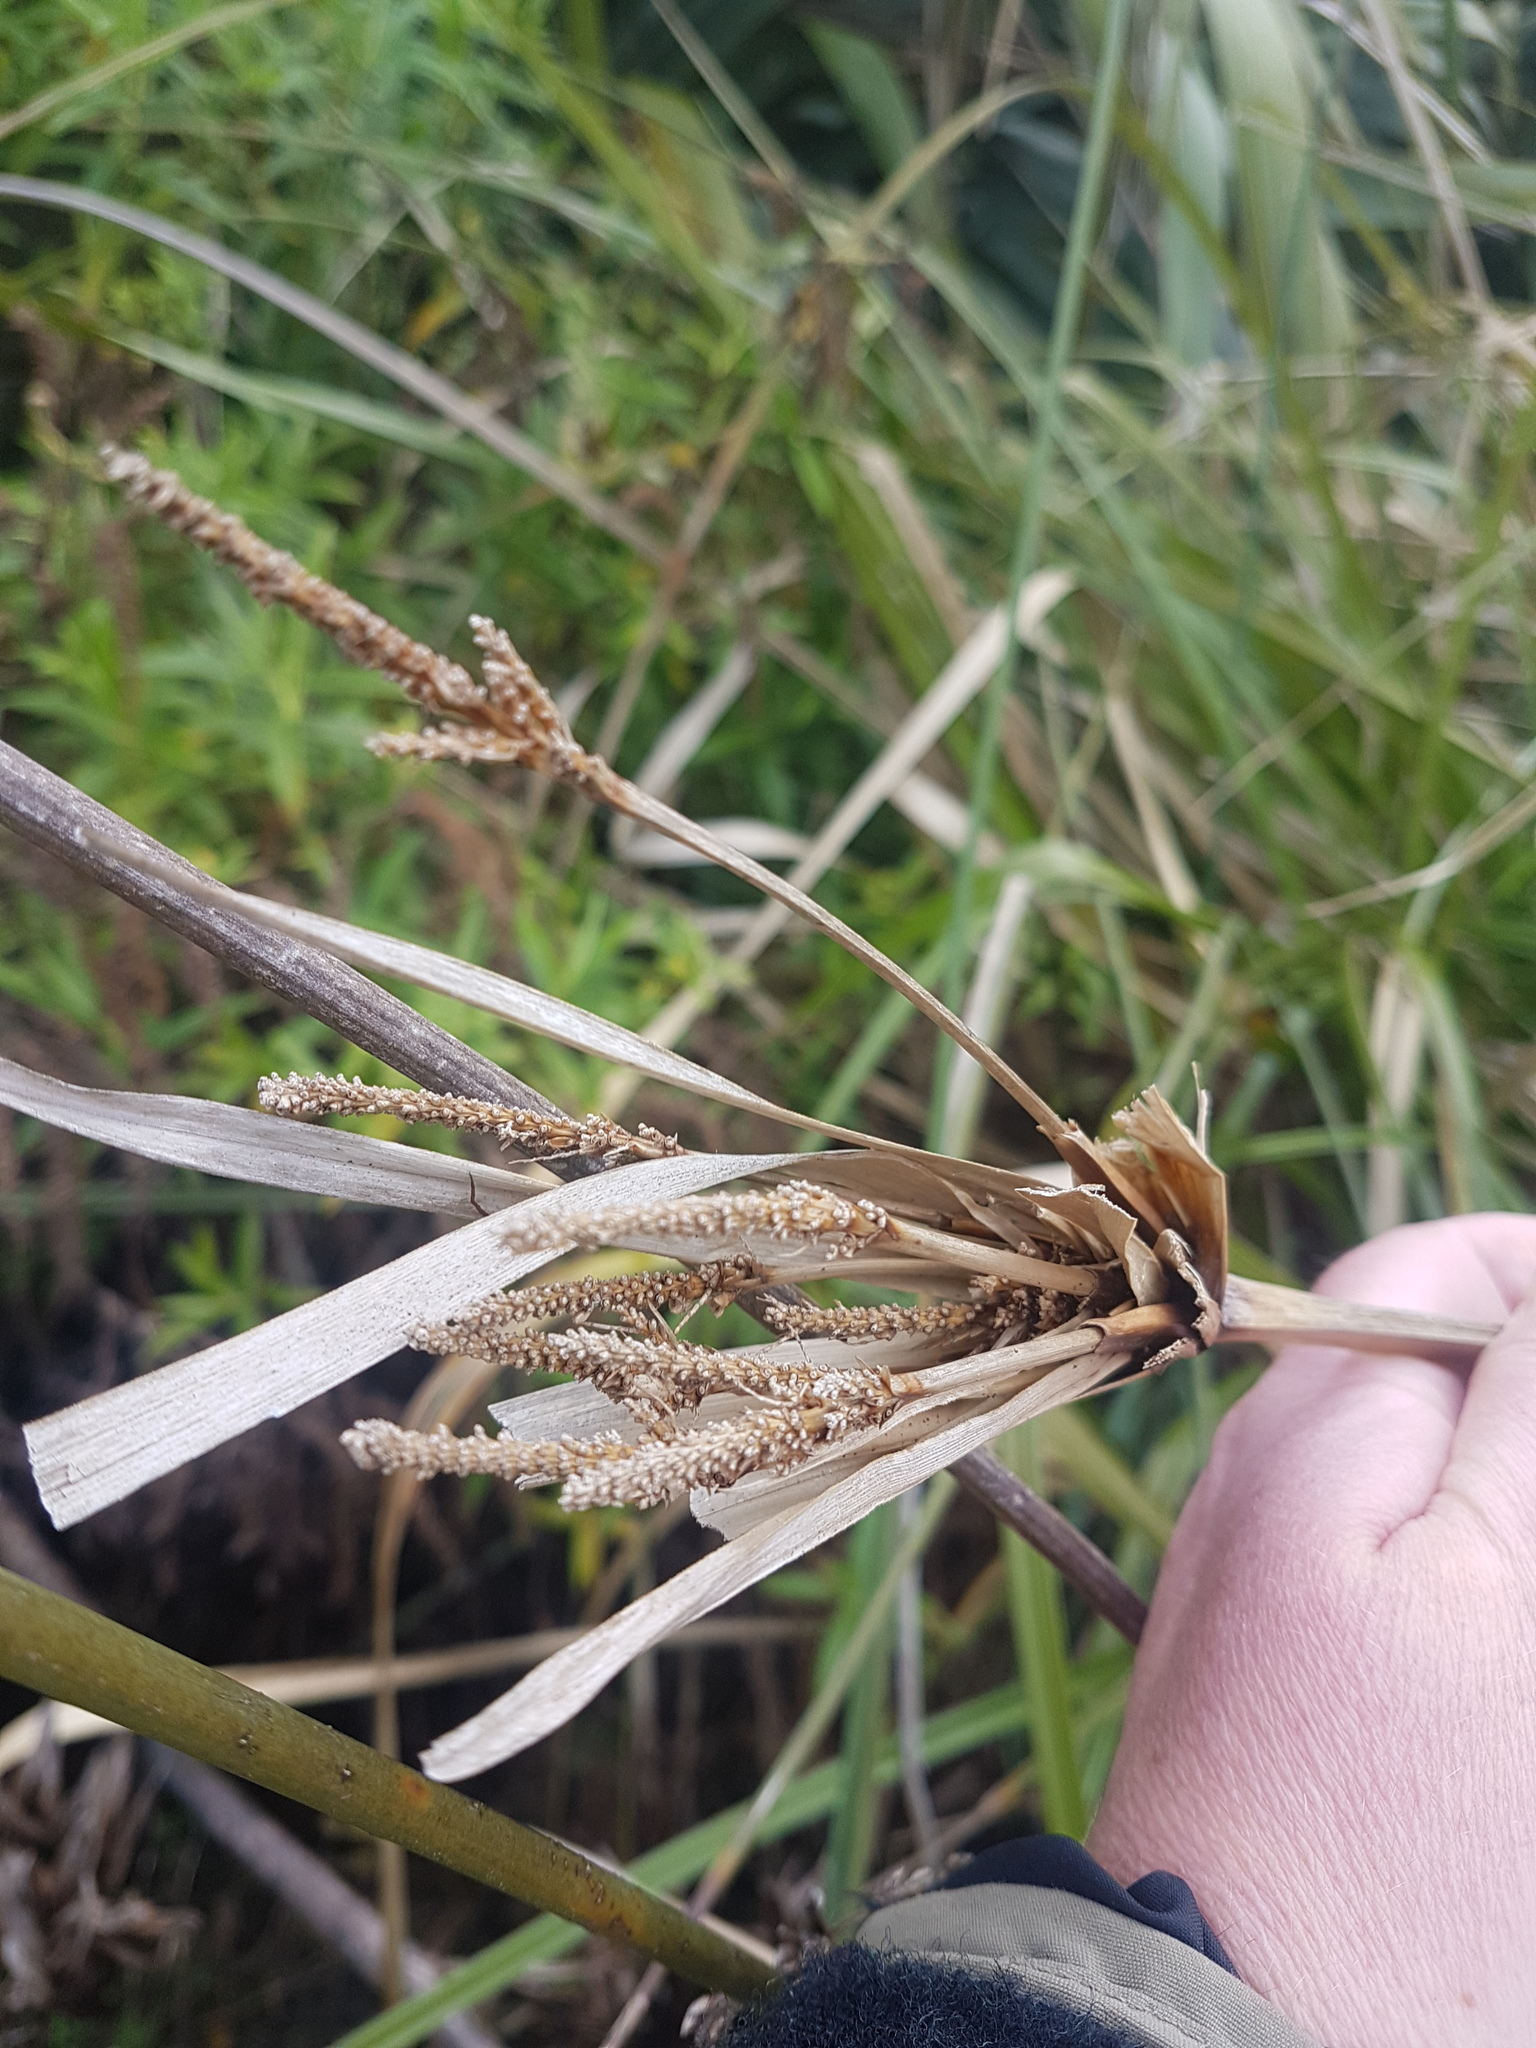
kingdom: Plantae
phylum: Tracheophyta
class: Liliopsida
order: Poales
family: Cyperaceae
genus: Cyperus
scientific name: Cyperus ustulatus
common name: Giant umbrella-sedge
